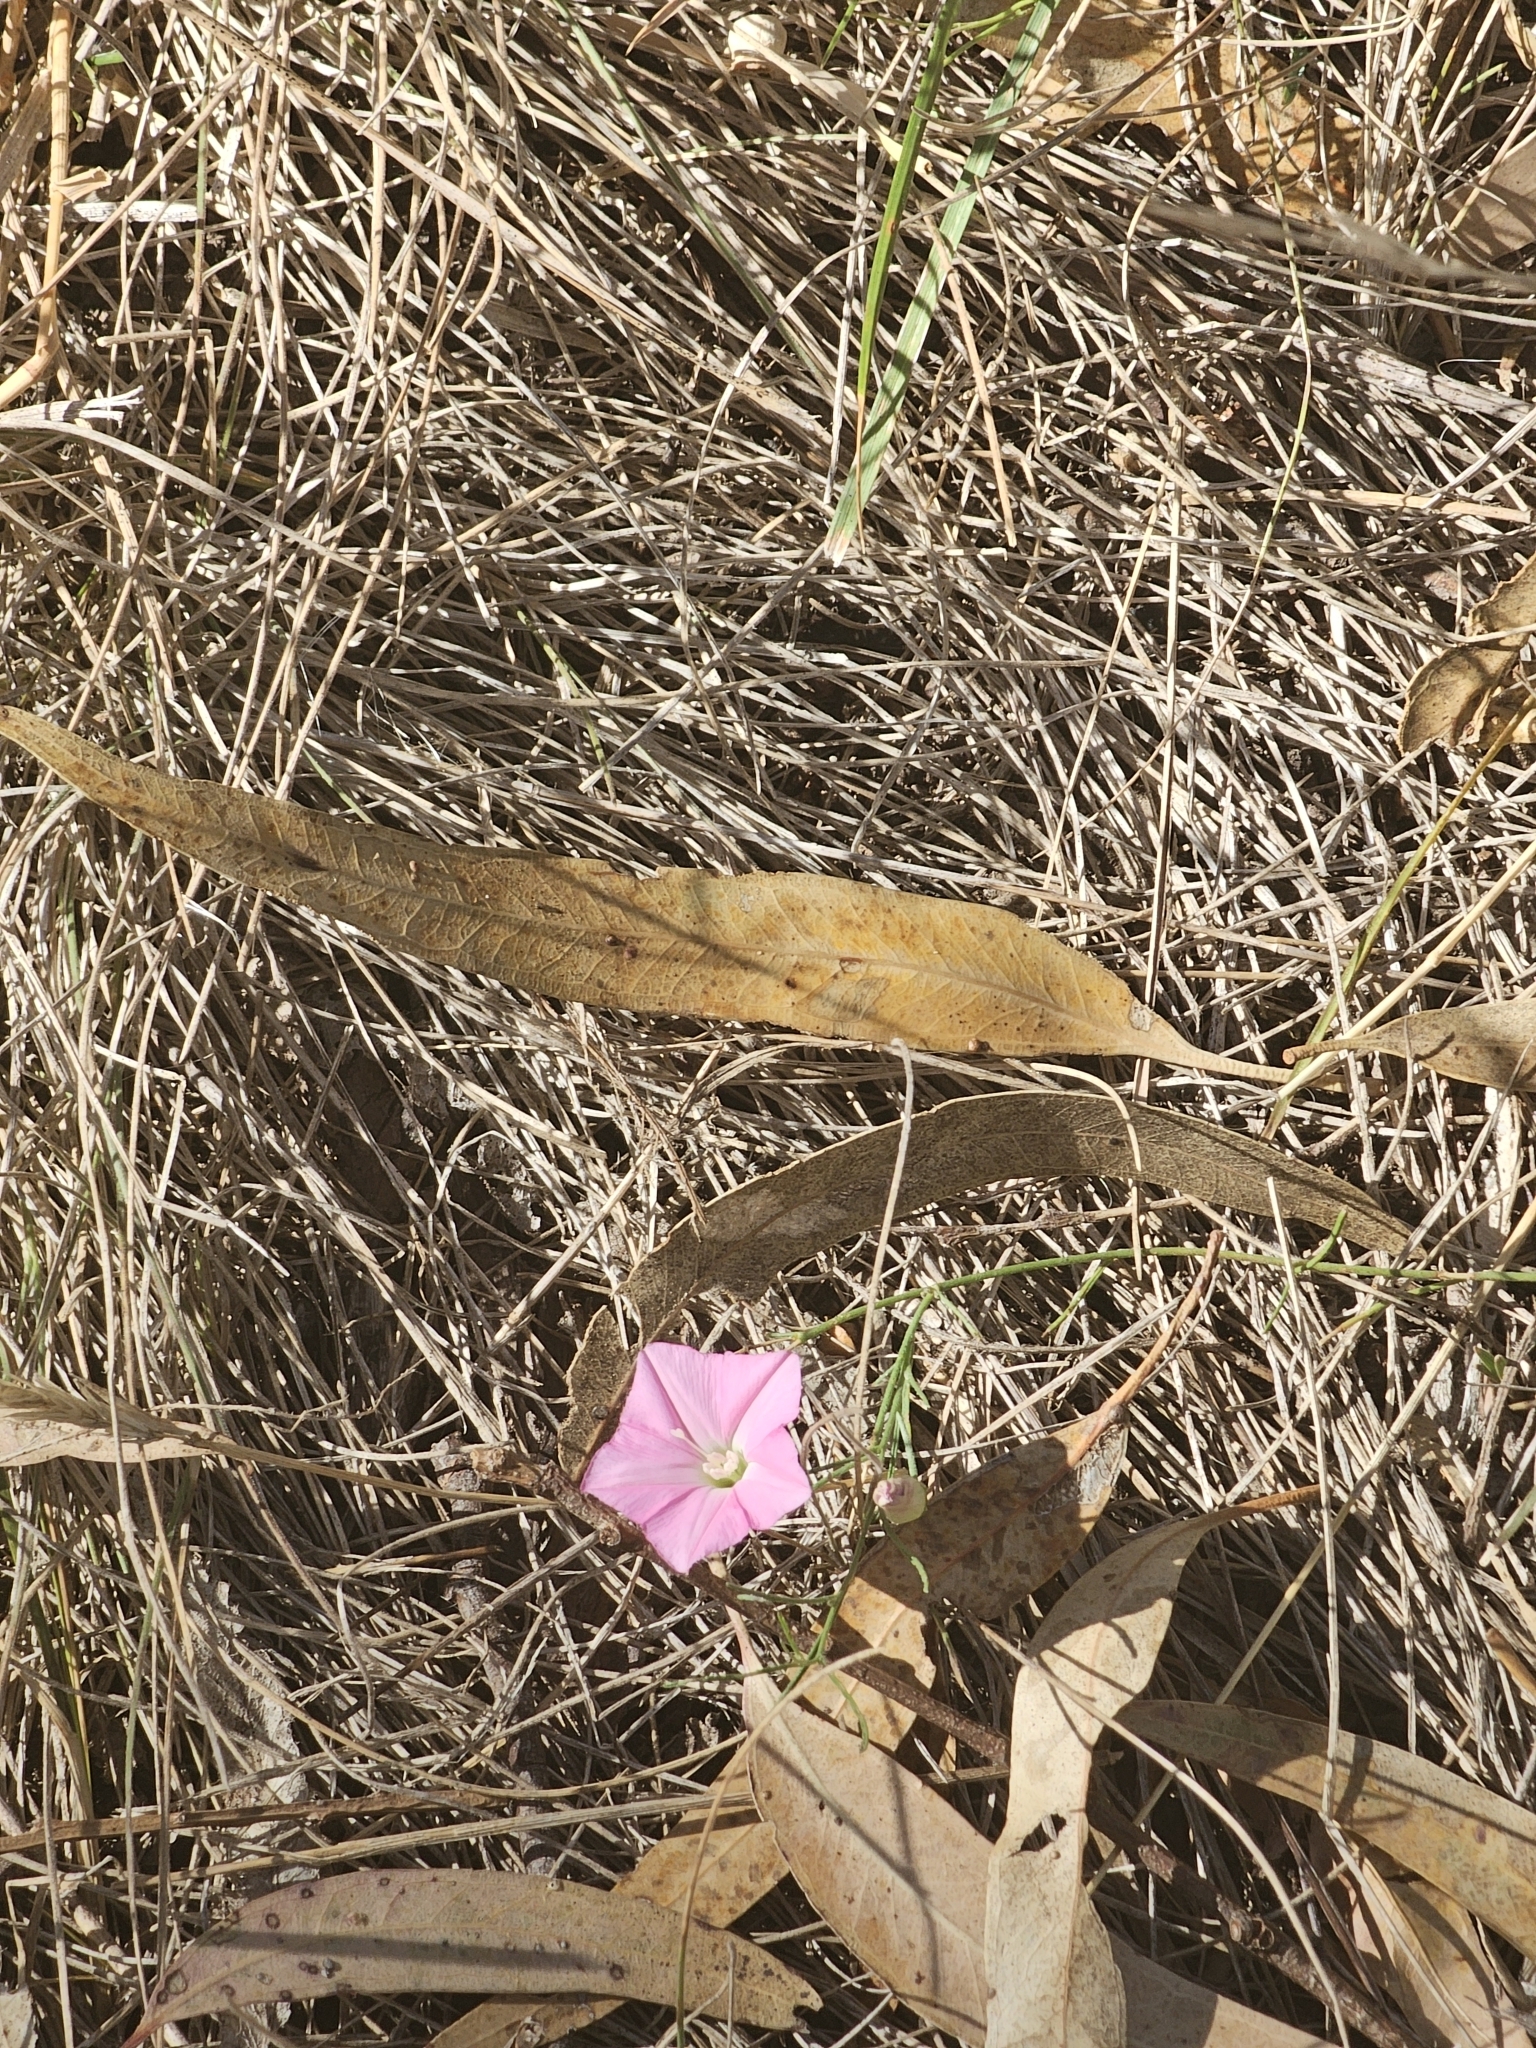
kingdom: Plantae
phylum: Tracheophyta
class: Magnoliopsida
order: Solanales
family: Convolvulaceae
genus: Convolvulus
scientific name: Convolvulus angustissimus
